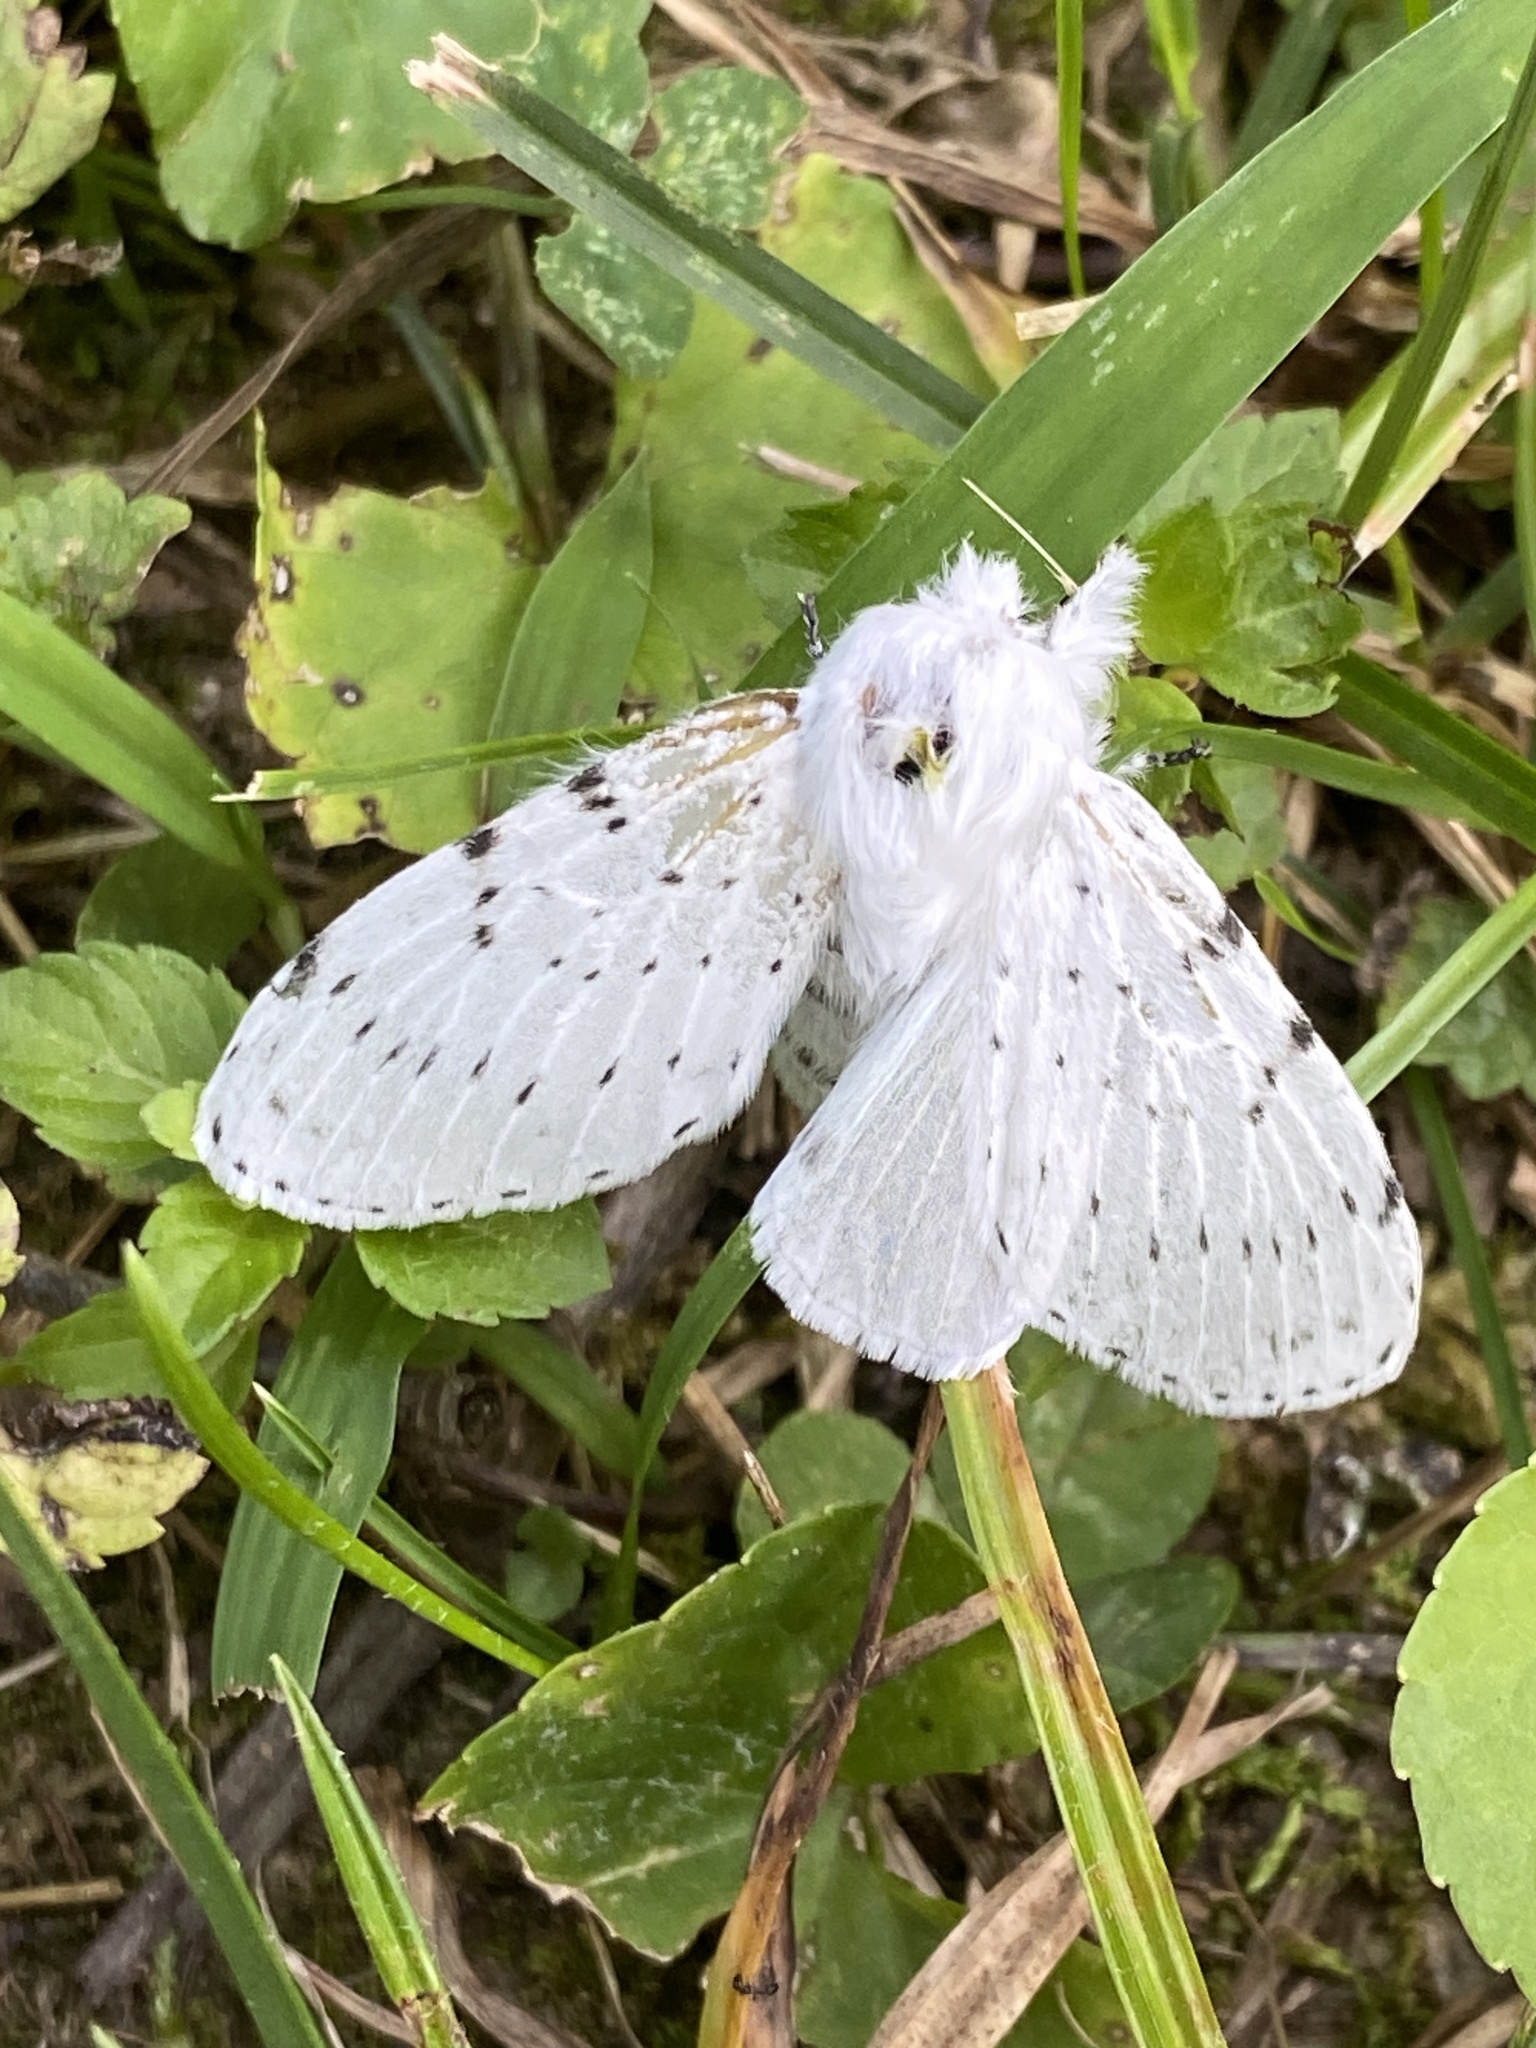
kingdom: Animalia
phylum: Arthropoda
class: Insecta
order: Lepidoptera
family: Lasiocampidae
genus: Artace
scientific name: Artace cribrarius
